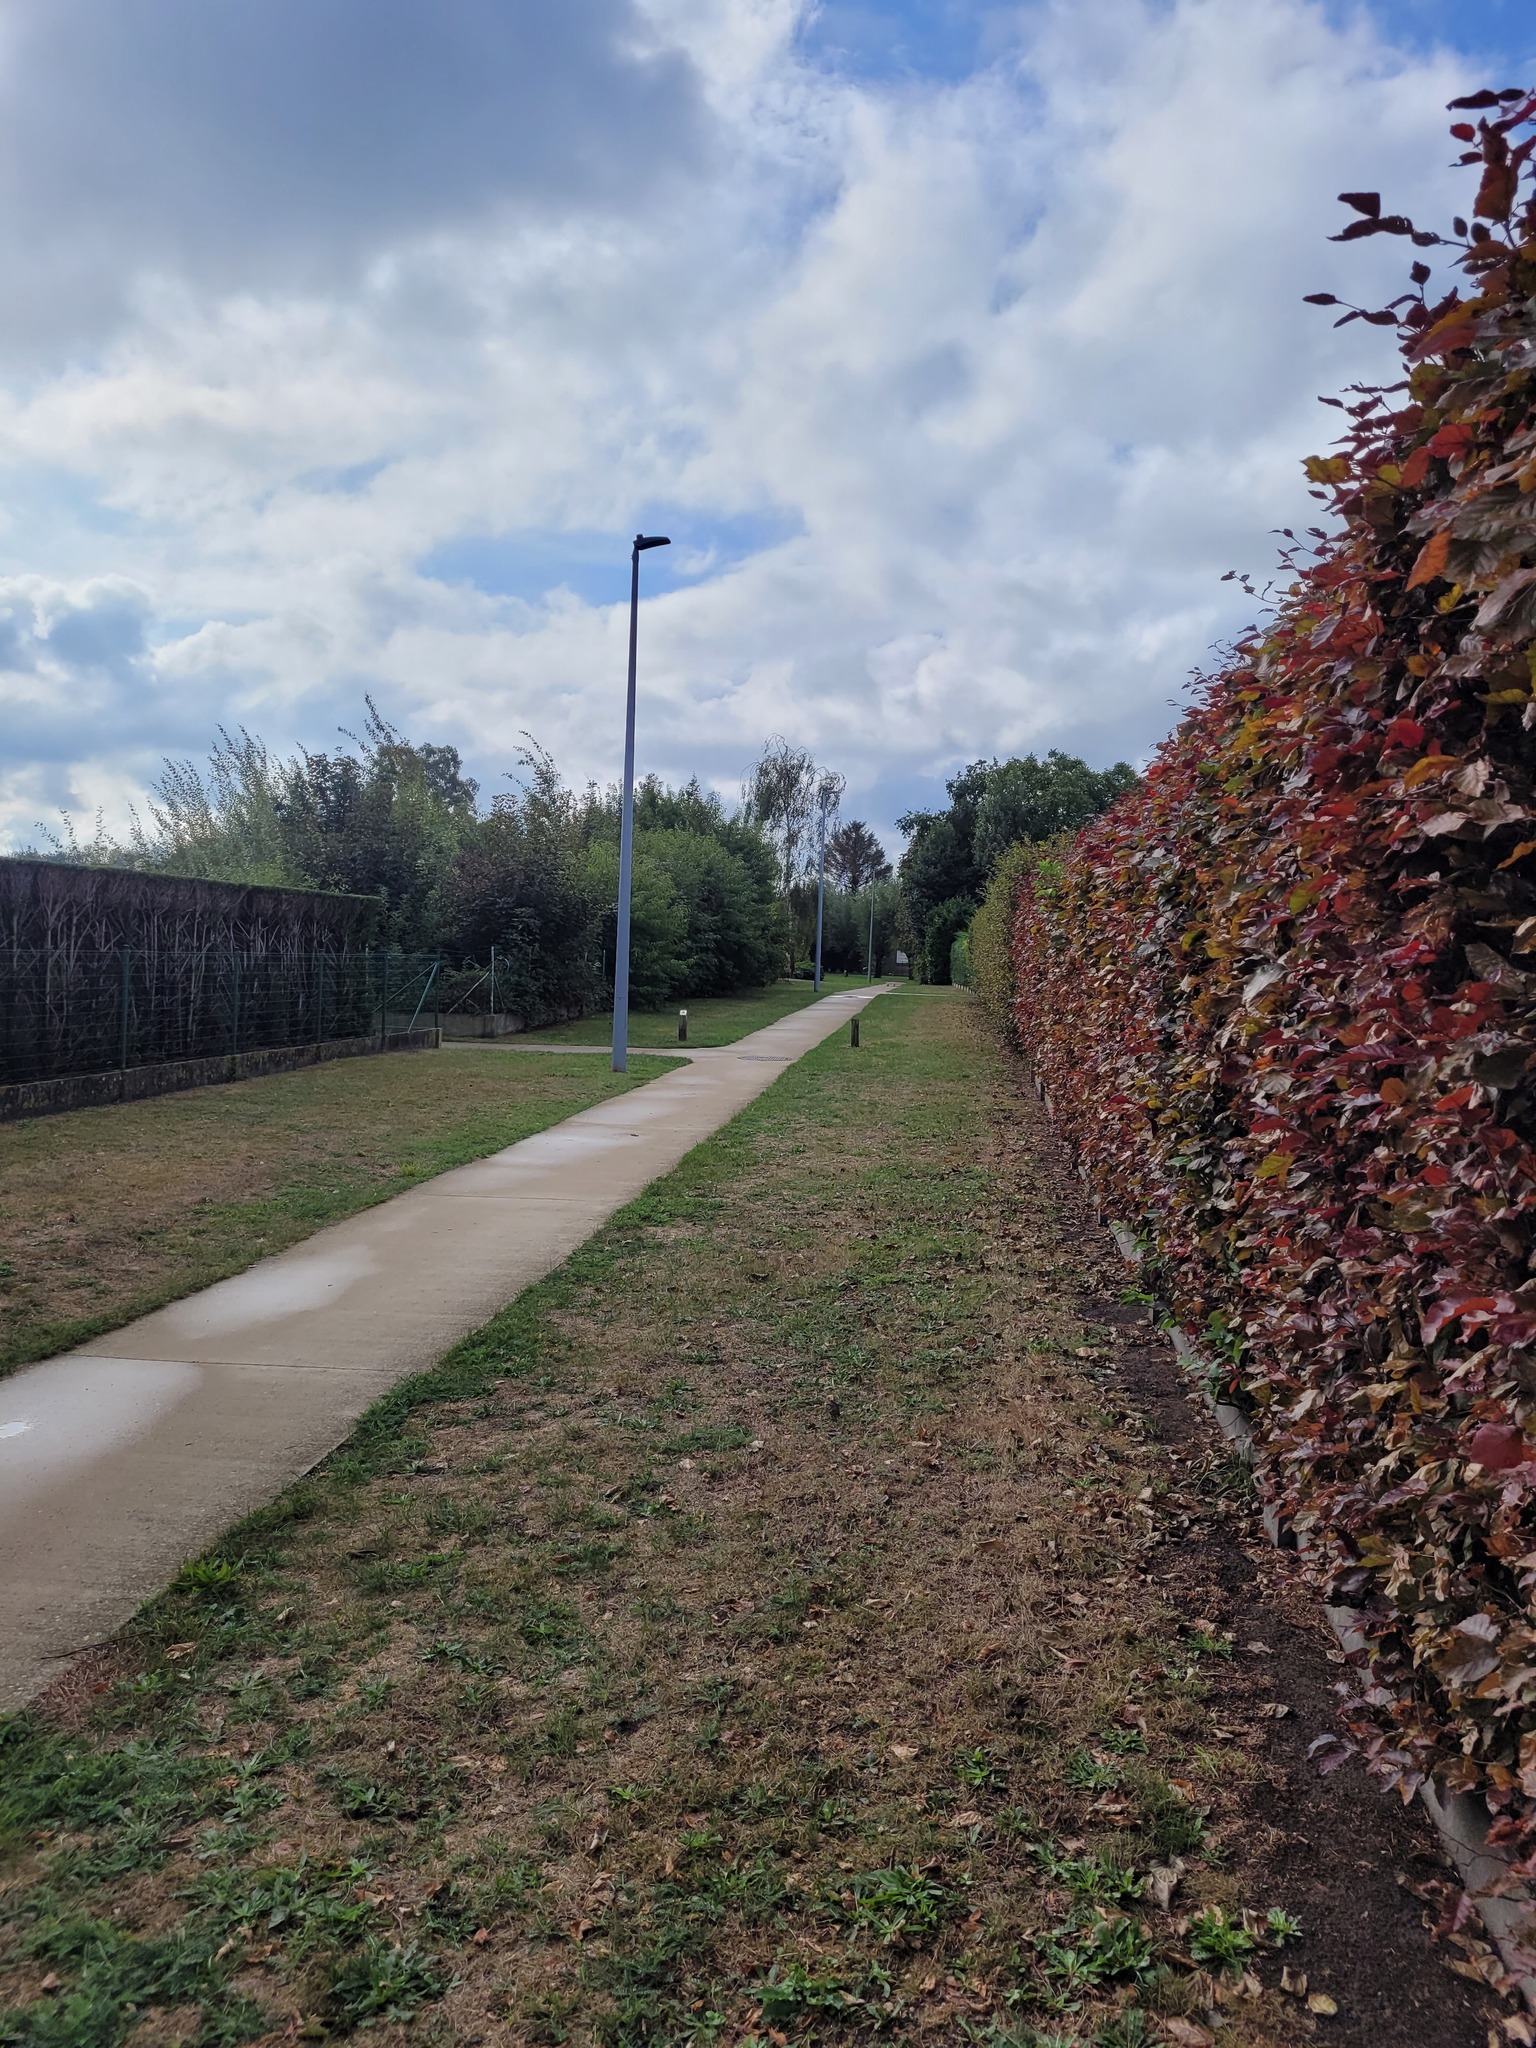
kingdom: Animalia
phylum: Arthropoda
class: Insecta
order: Hymenoptera
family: Vespidae
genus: Vespa
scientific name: Vespa velutina
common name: Asian hornet
